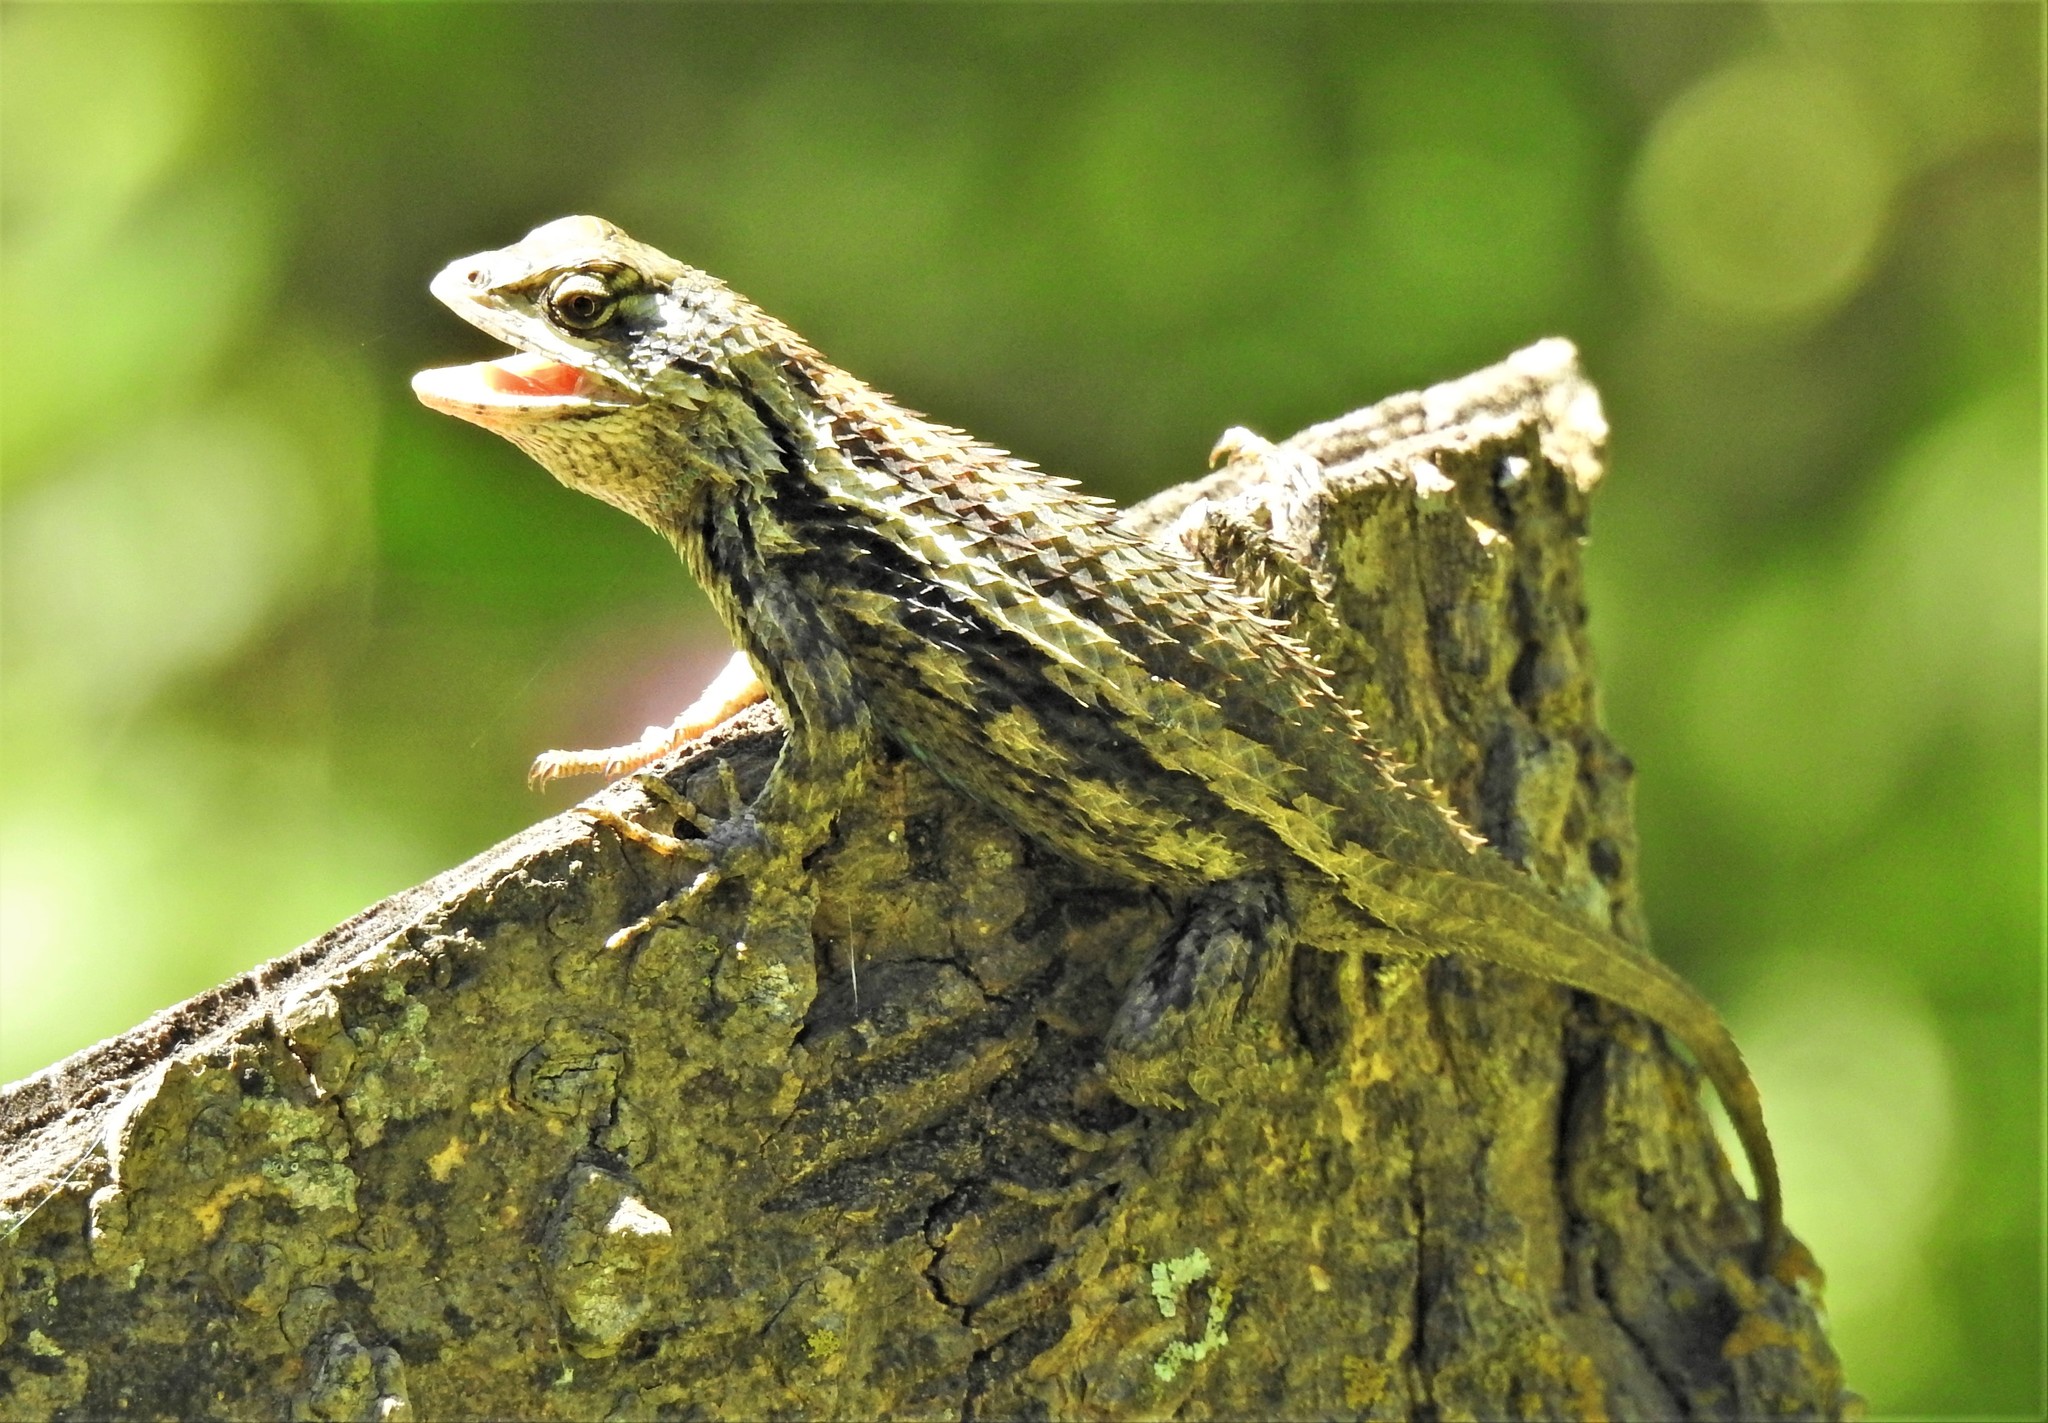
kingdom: Animalia
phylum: Chordata
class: Squamata
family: Phrynosomatidae
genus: Sceloporus
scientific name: Sceloporus olivaceus
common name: Texas spiny lizard
